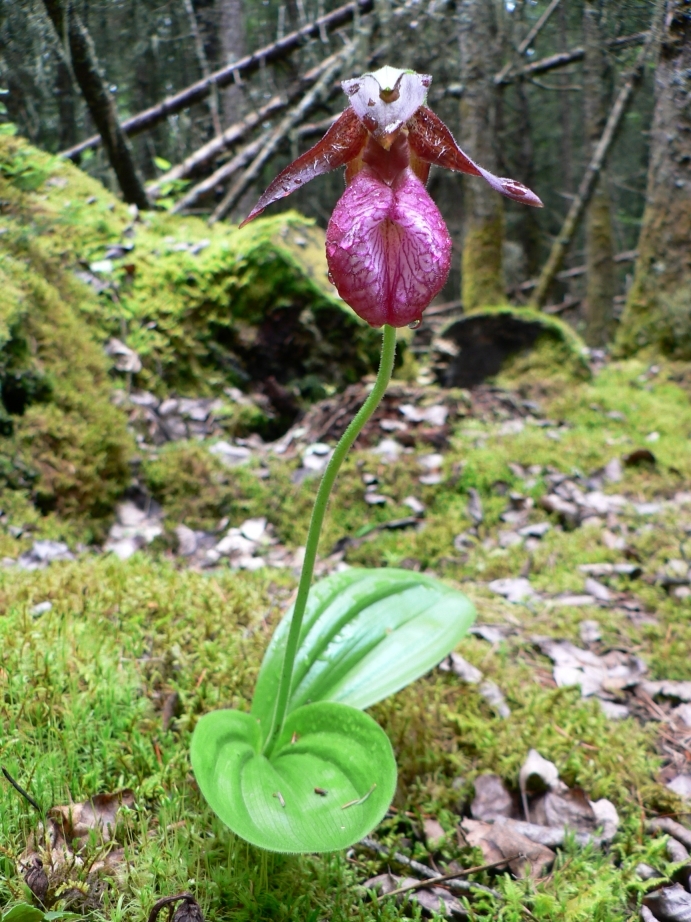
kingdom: Plantae
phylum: Tracheophyta
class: Liliopsida
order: Asparagales
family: Orchidaceae
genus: Cypripedium
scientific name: Cypripedium acaule
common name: Pink lady's-slipper
